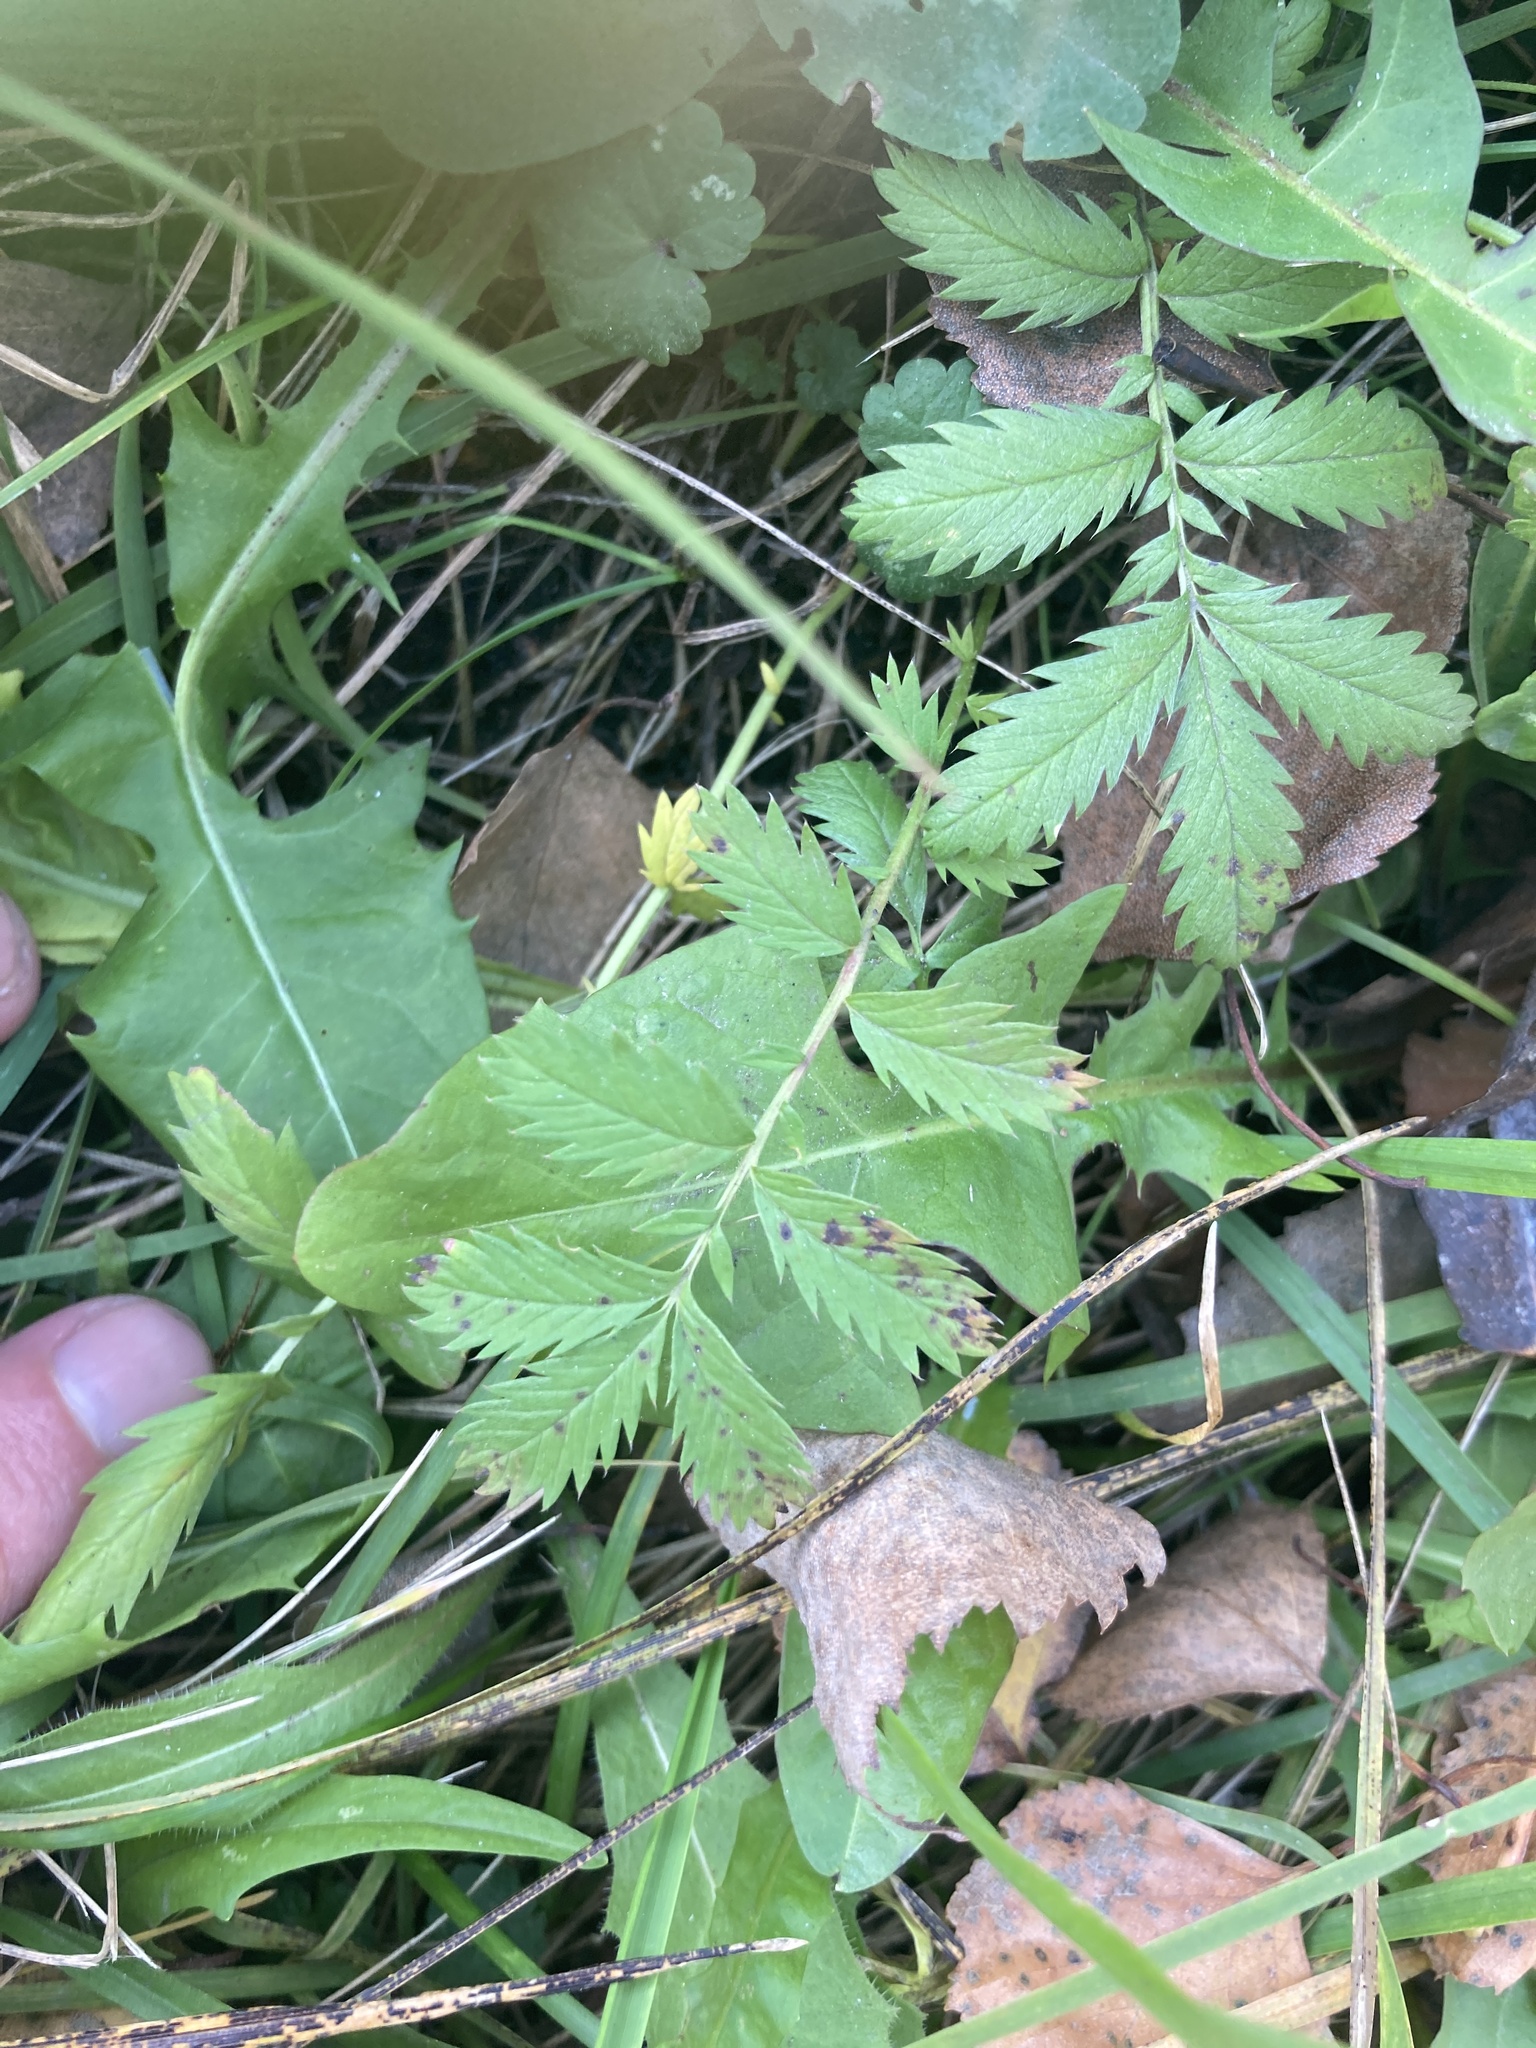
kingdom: Plantae
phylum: Tracheophyta
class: Magnoliopsida
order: Rosales
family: Rosaceae
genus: Argentina
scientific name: Argentina anserina
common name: Common silverweed
